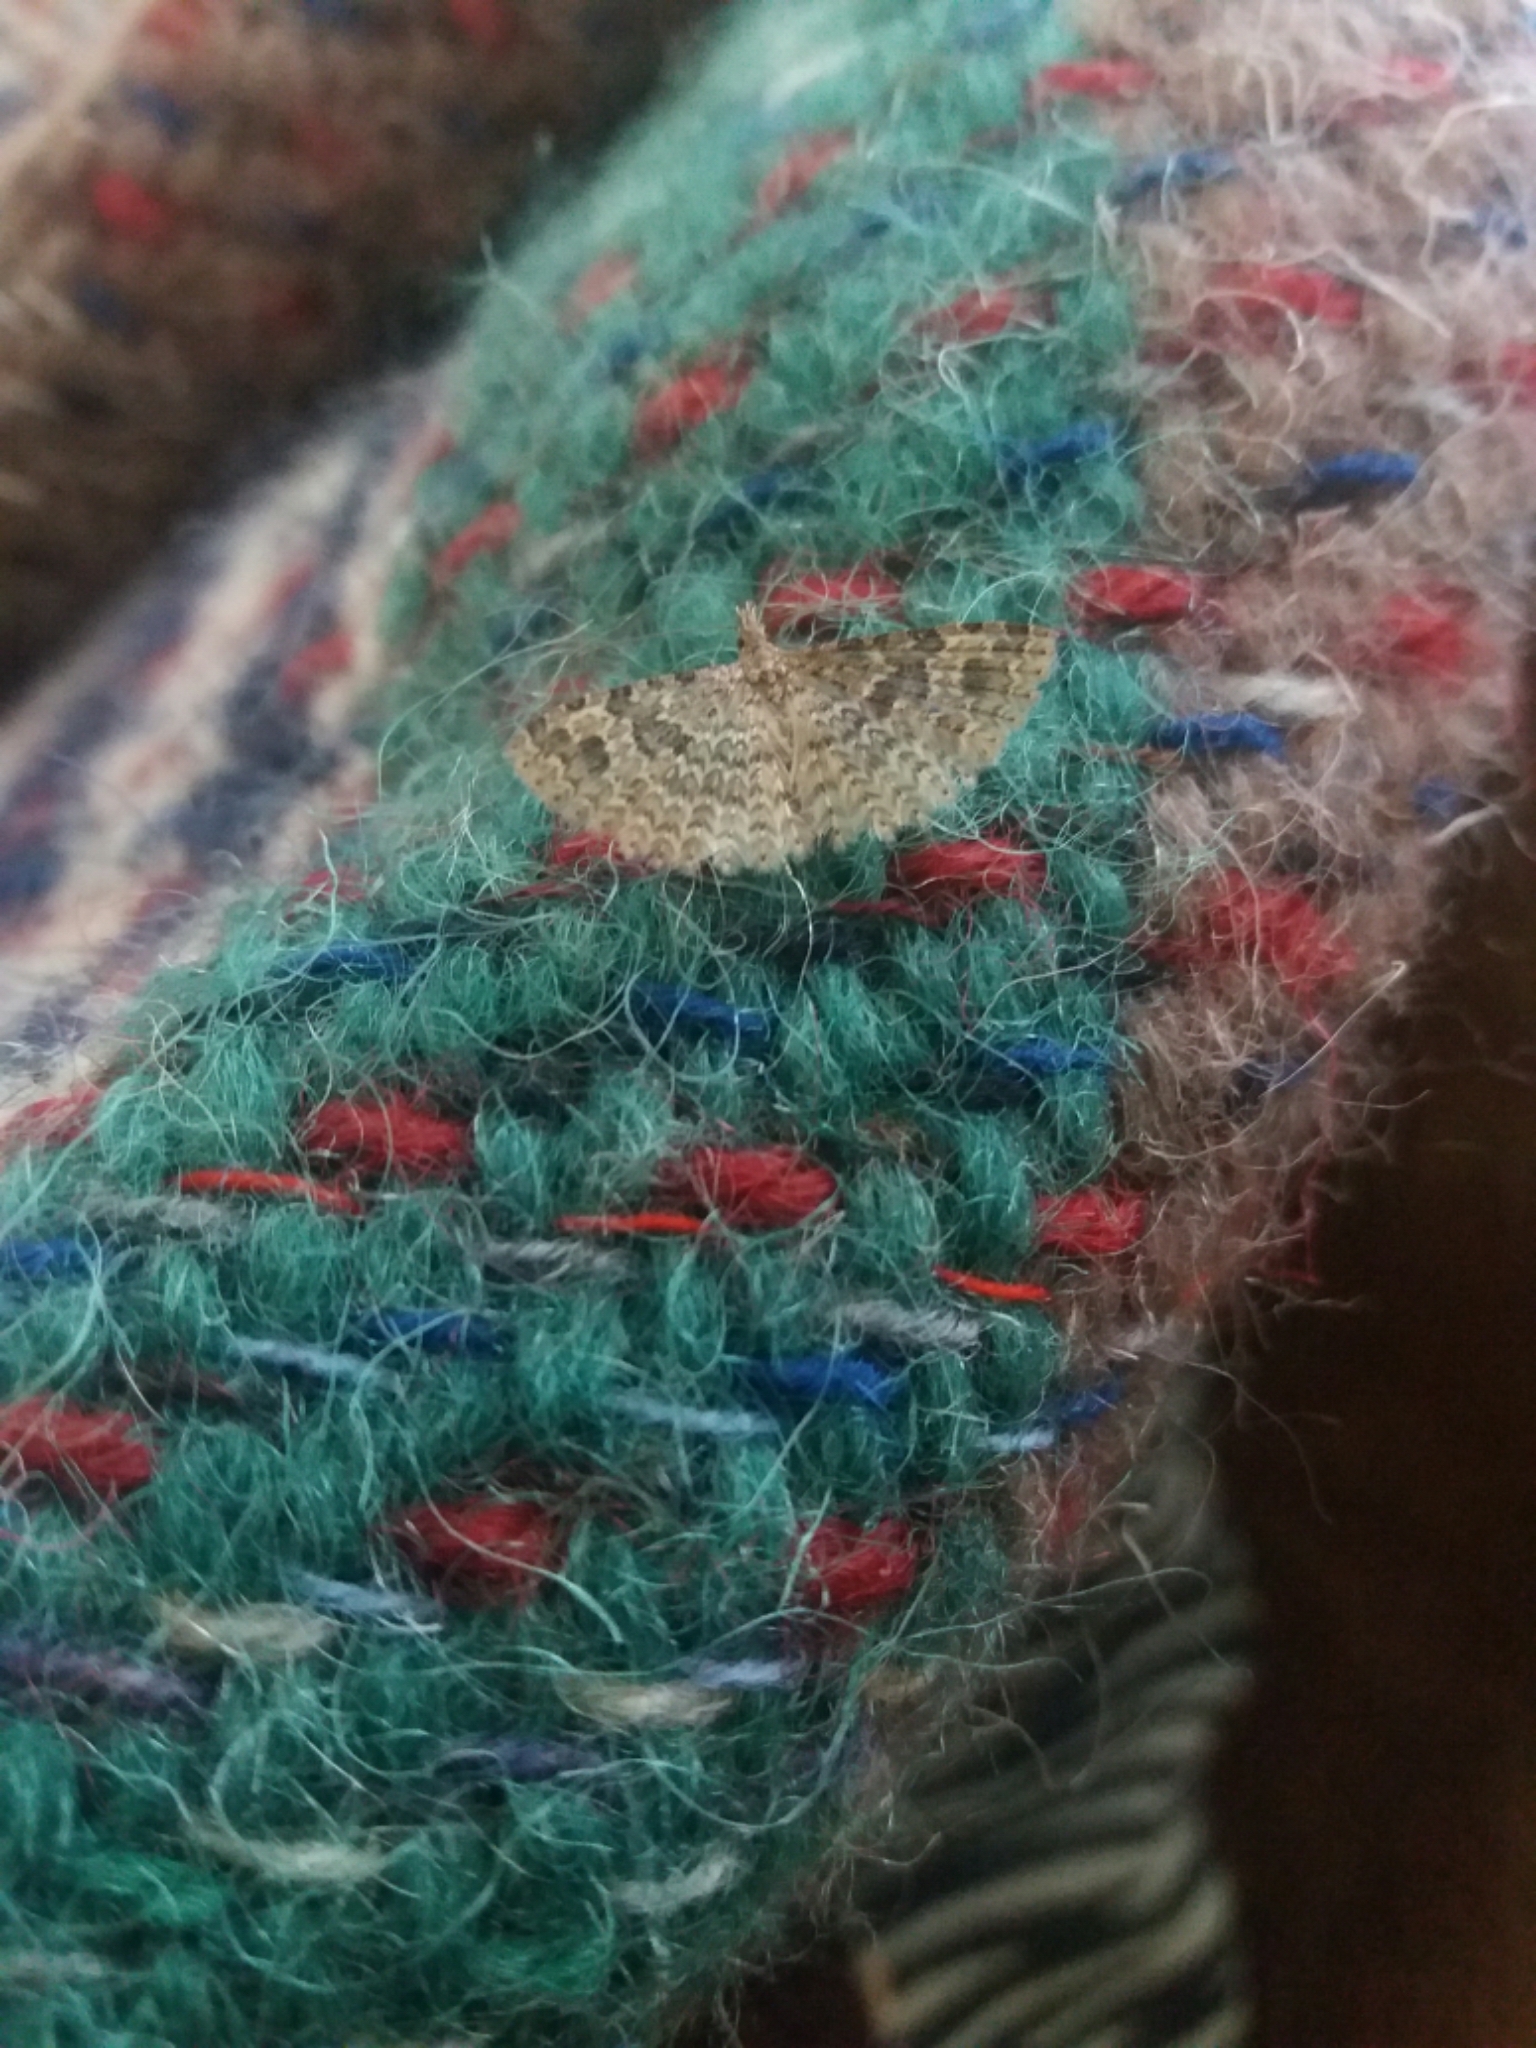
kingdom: Animalia
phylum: Arthropoda
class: Insecta
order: Lepidoptera
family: Alucitidae
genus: Alucita
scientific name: Alucita hexadactyla
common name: Twenty-plume moth
